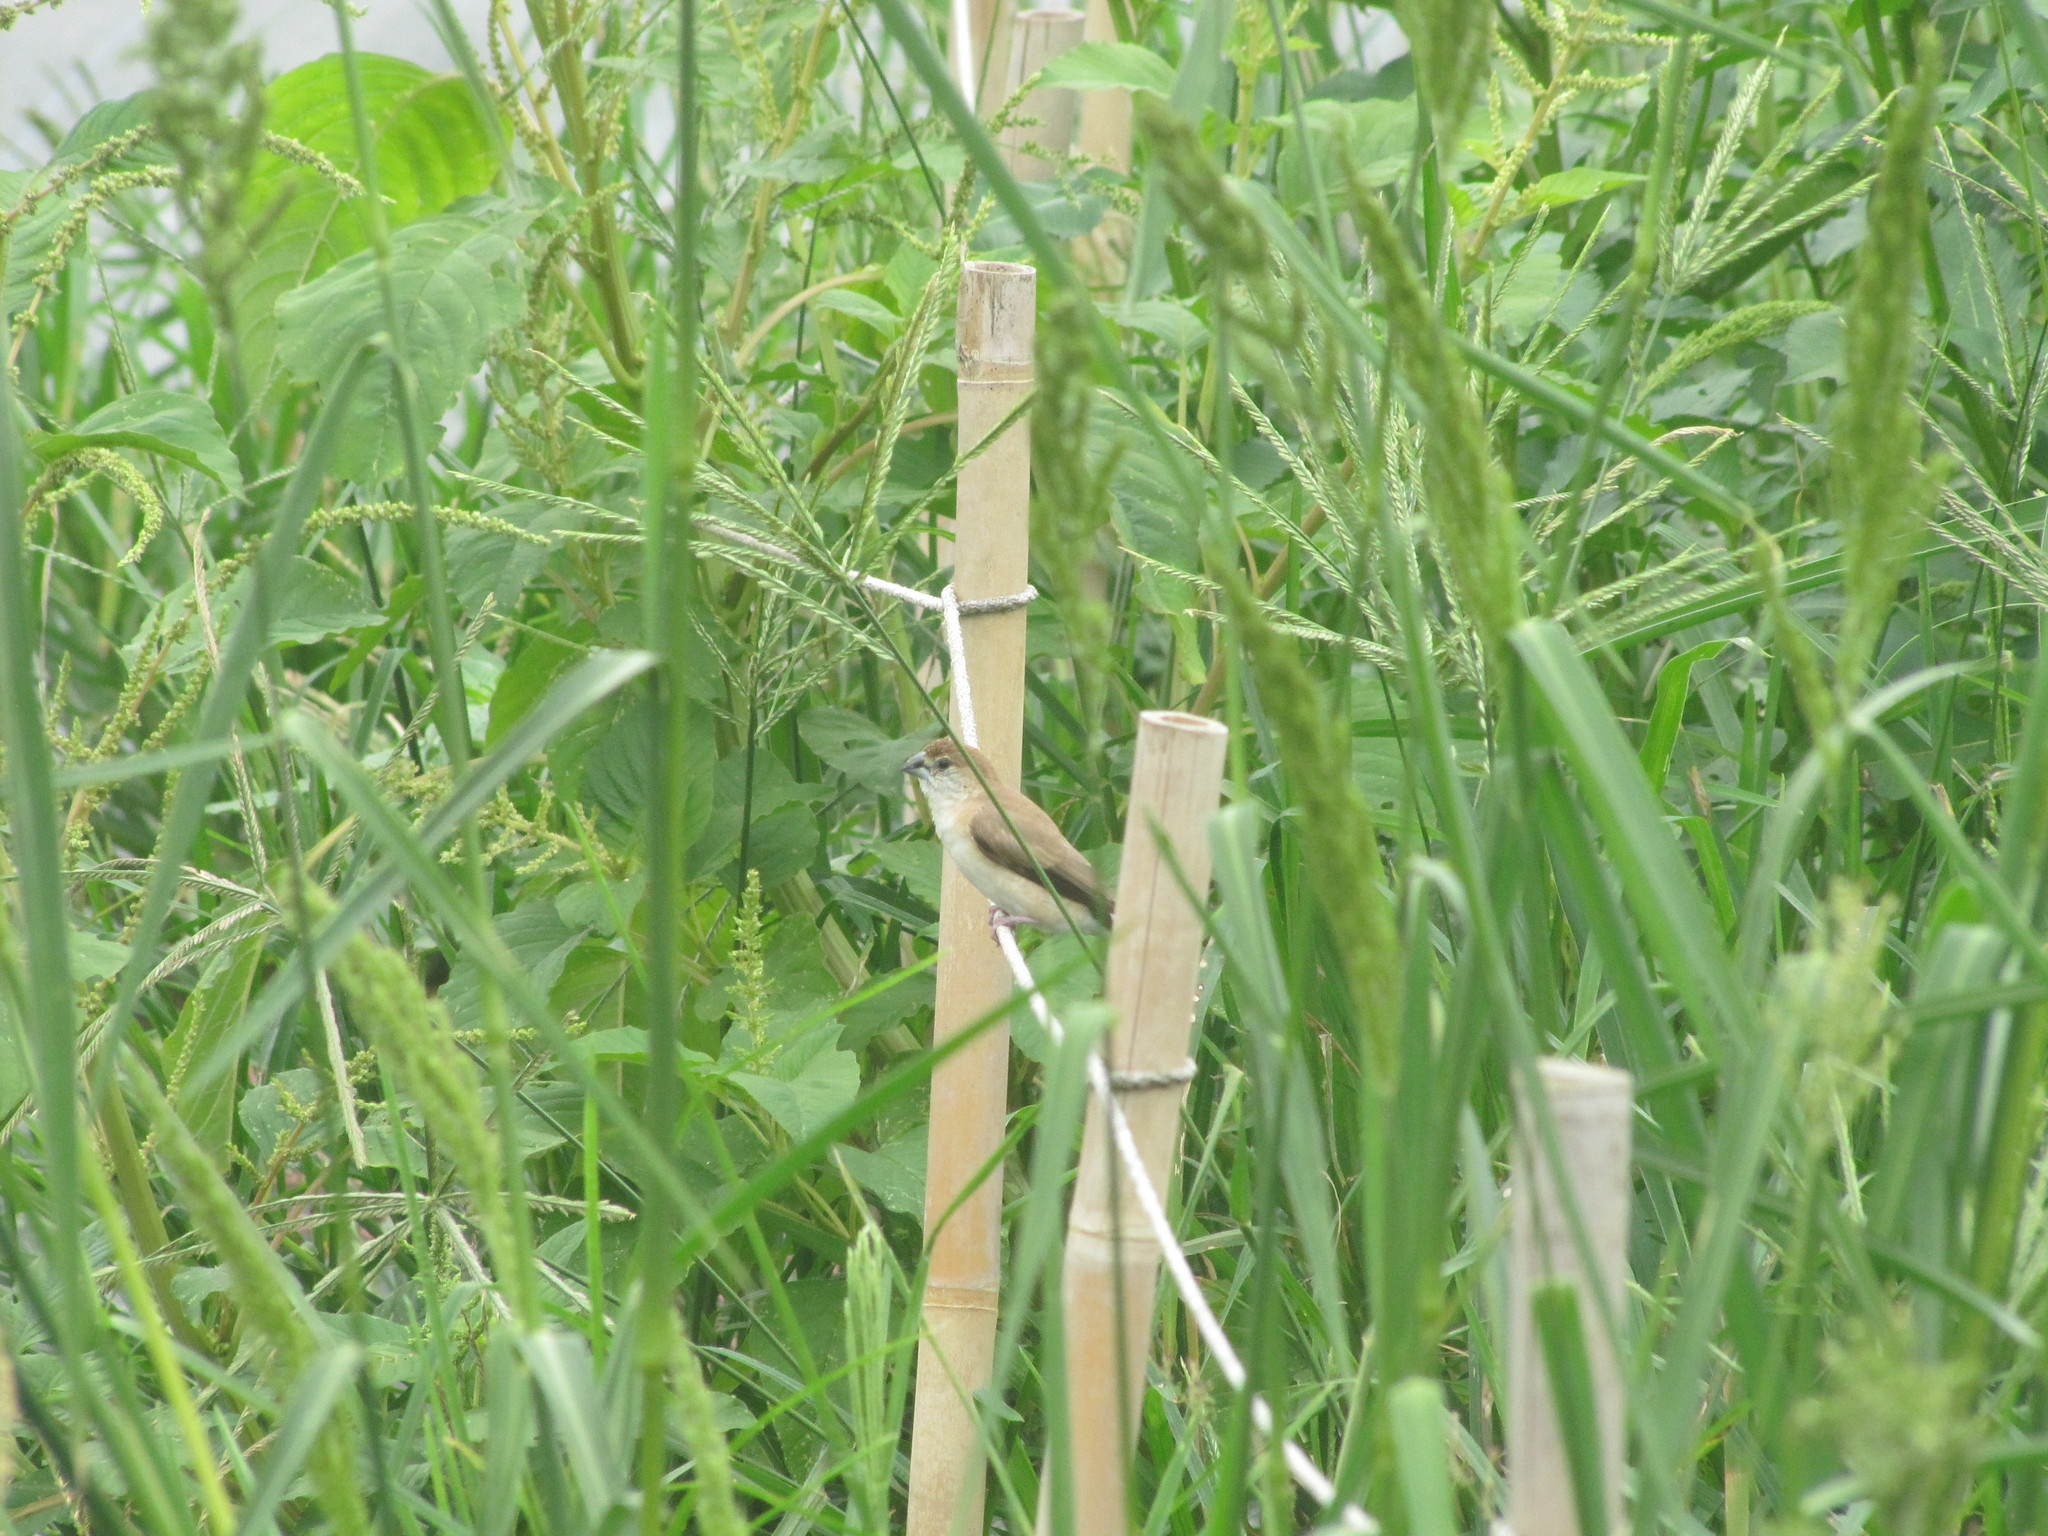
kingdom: Animalia
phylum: Chordata
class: Aves
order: Passeriformes
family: Estrildidae
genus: Euodice
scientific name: Euodice malabarica
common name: Indian silverbill
